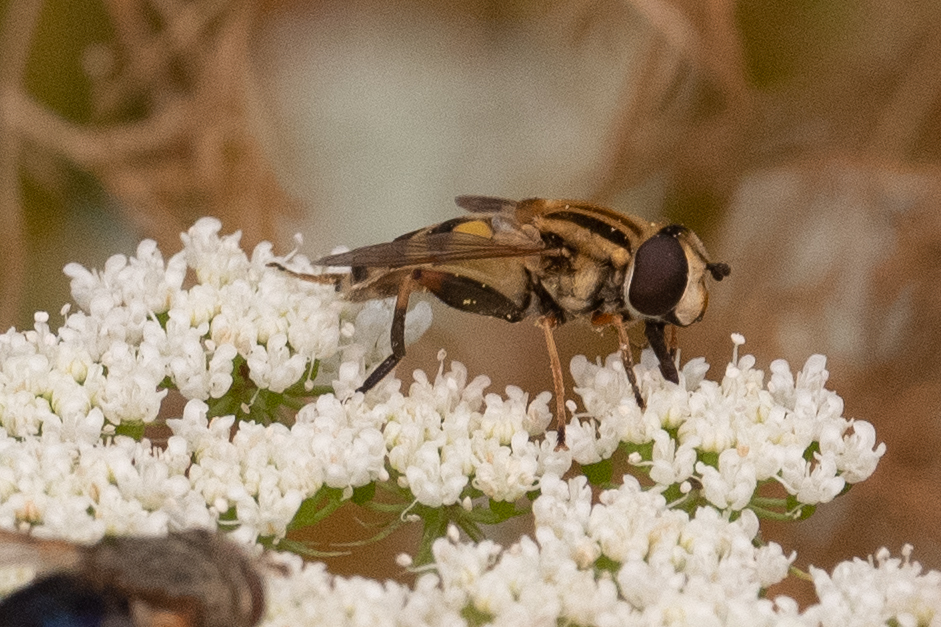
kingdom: Animalia
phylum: Arthropoda
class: Insecta
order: Diptera
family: Syrphidae
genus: Helophilus
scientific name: Helophilus latifrons
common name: Broad-headed marsh fly
